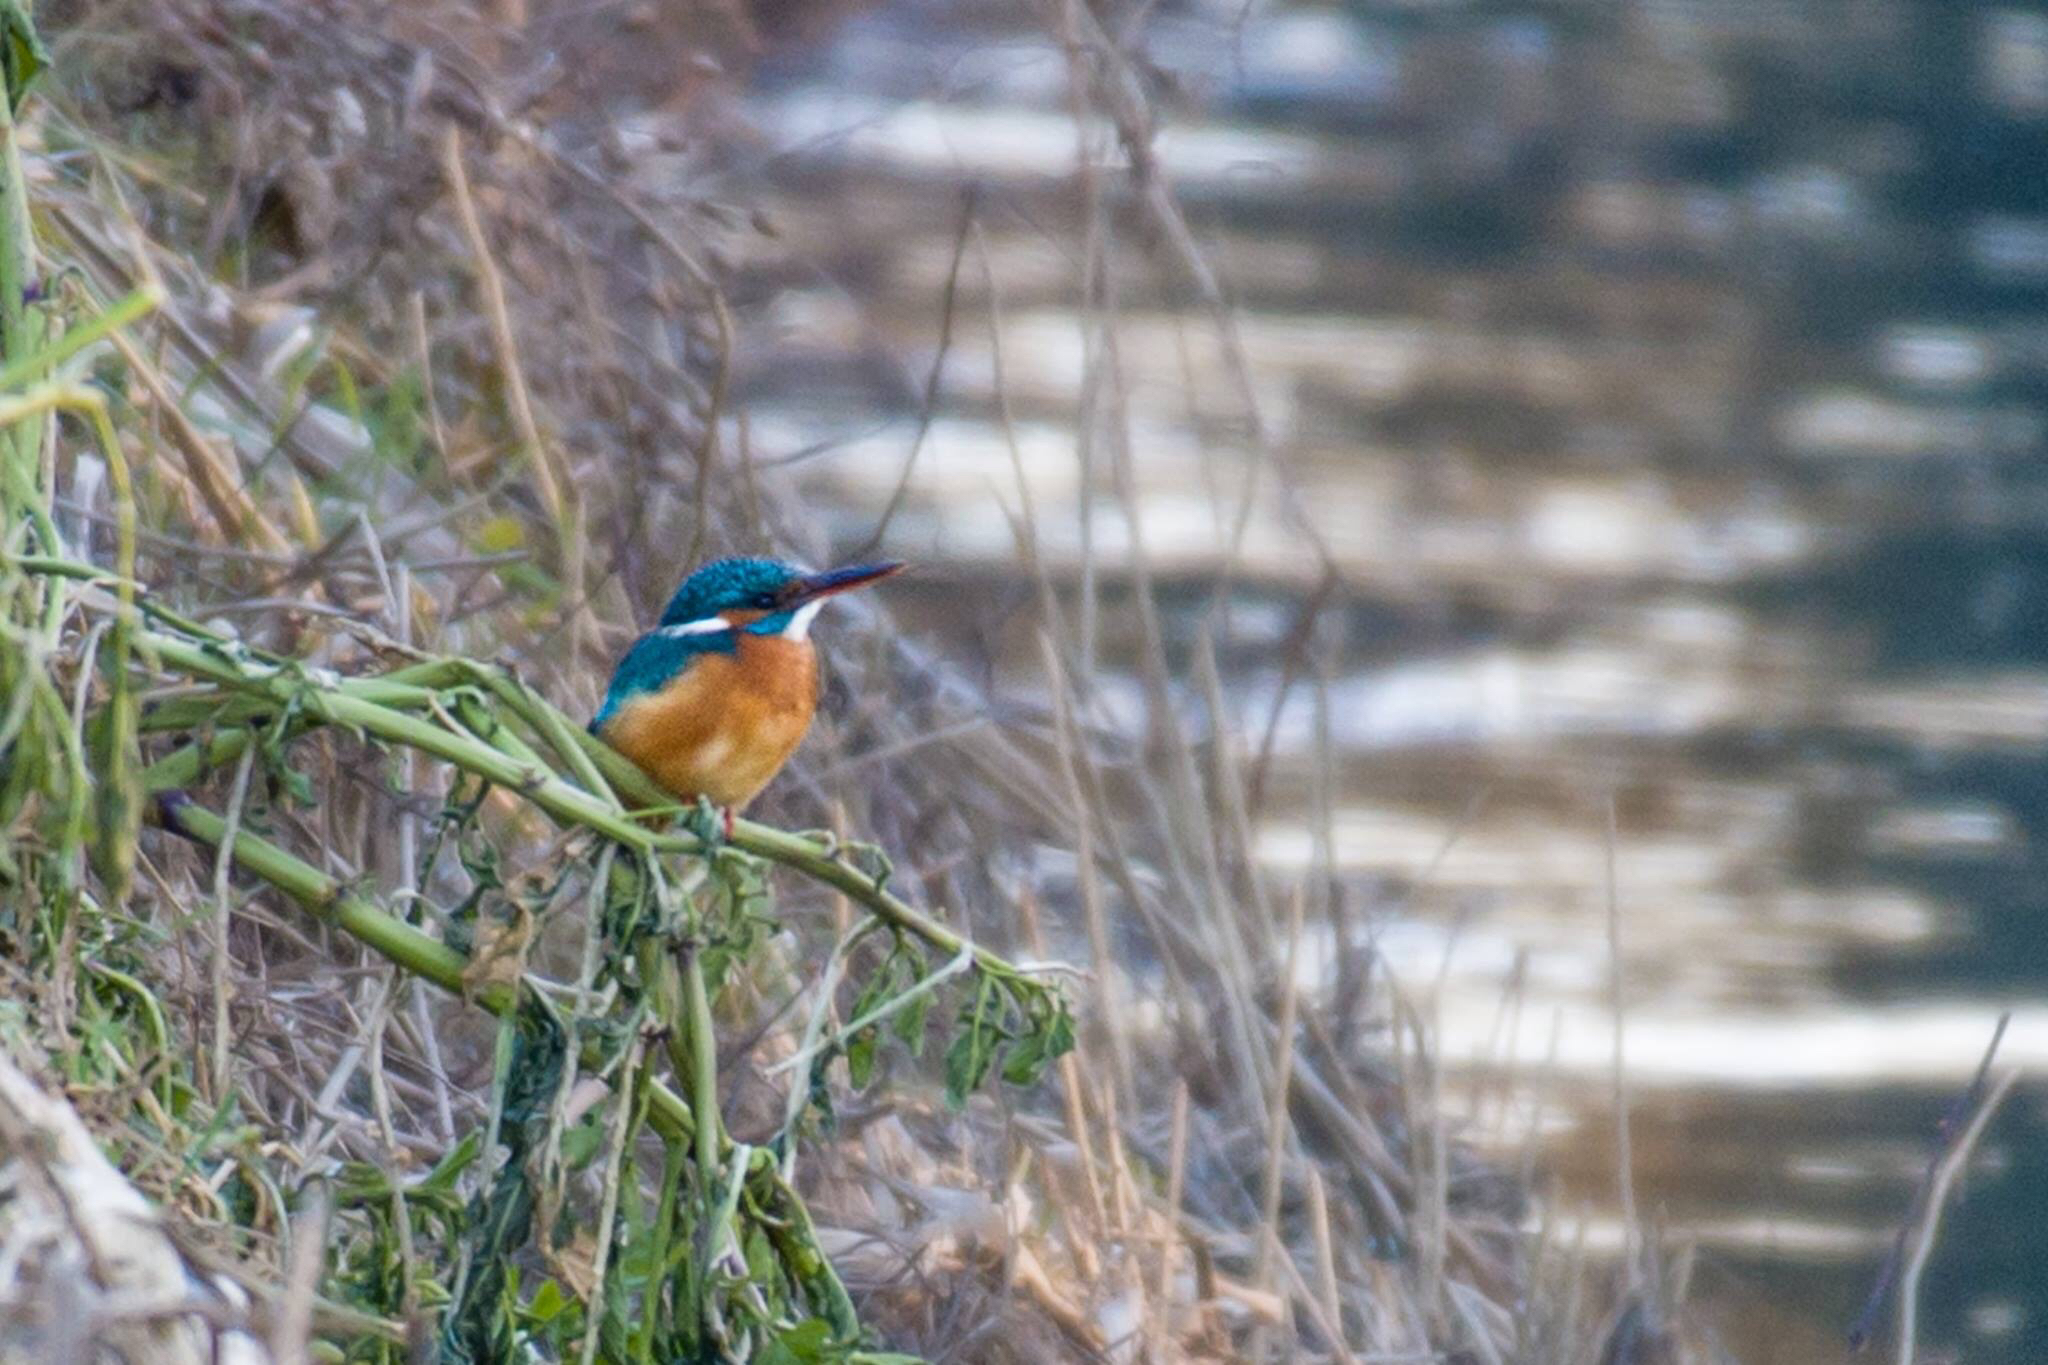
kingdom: Animalia
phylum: Chordata
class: Aves
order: Coraciiformes
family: Alcedinidae
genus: Alcedo
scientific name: Alcedo atthis
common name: Common kingfisher
